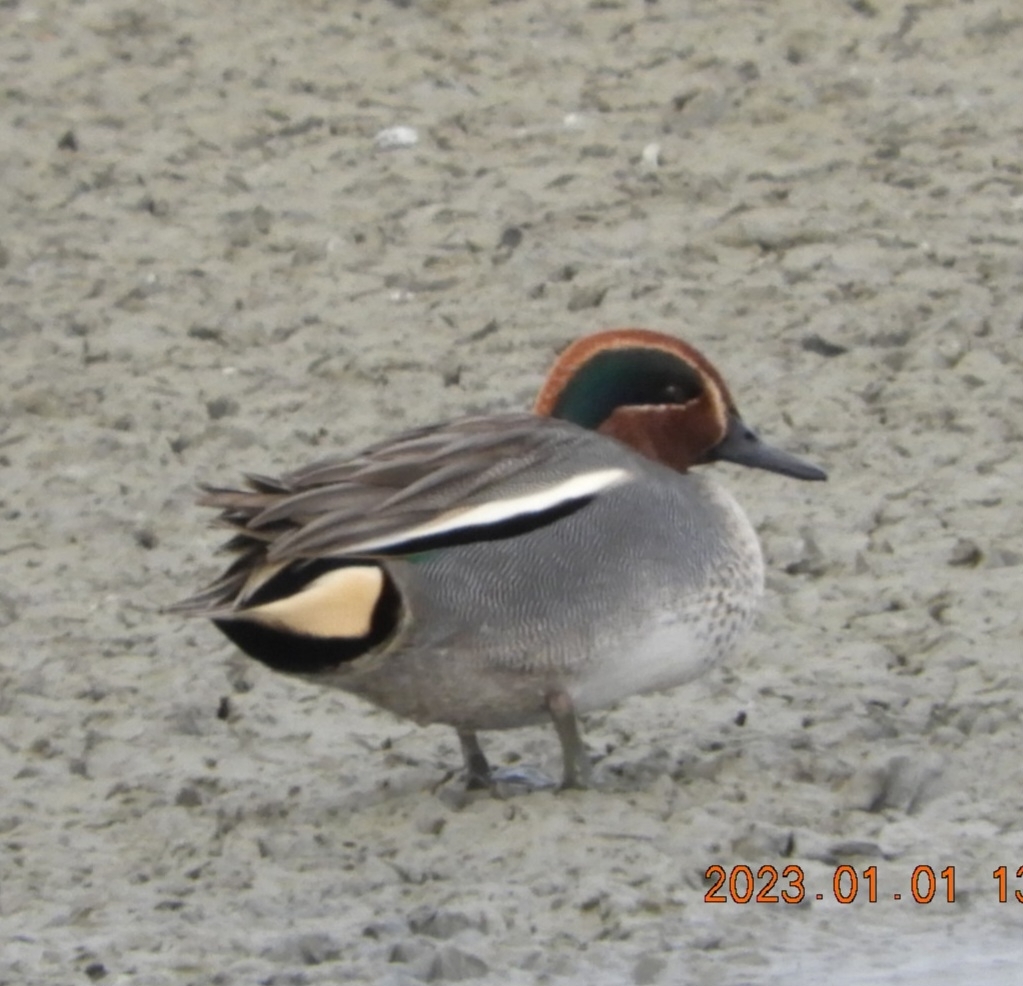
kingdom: Animalia
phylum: Chordata
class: Aves
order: Anseriformes
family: Anatidae
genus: Anas
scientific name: Anas crecca
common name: Eurasian teal
